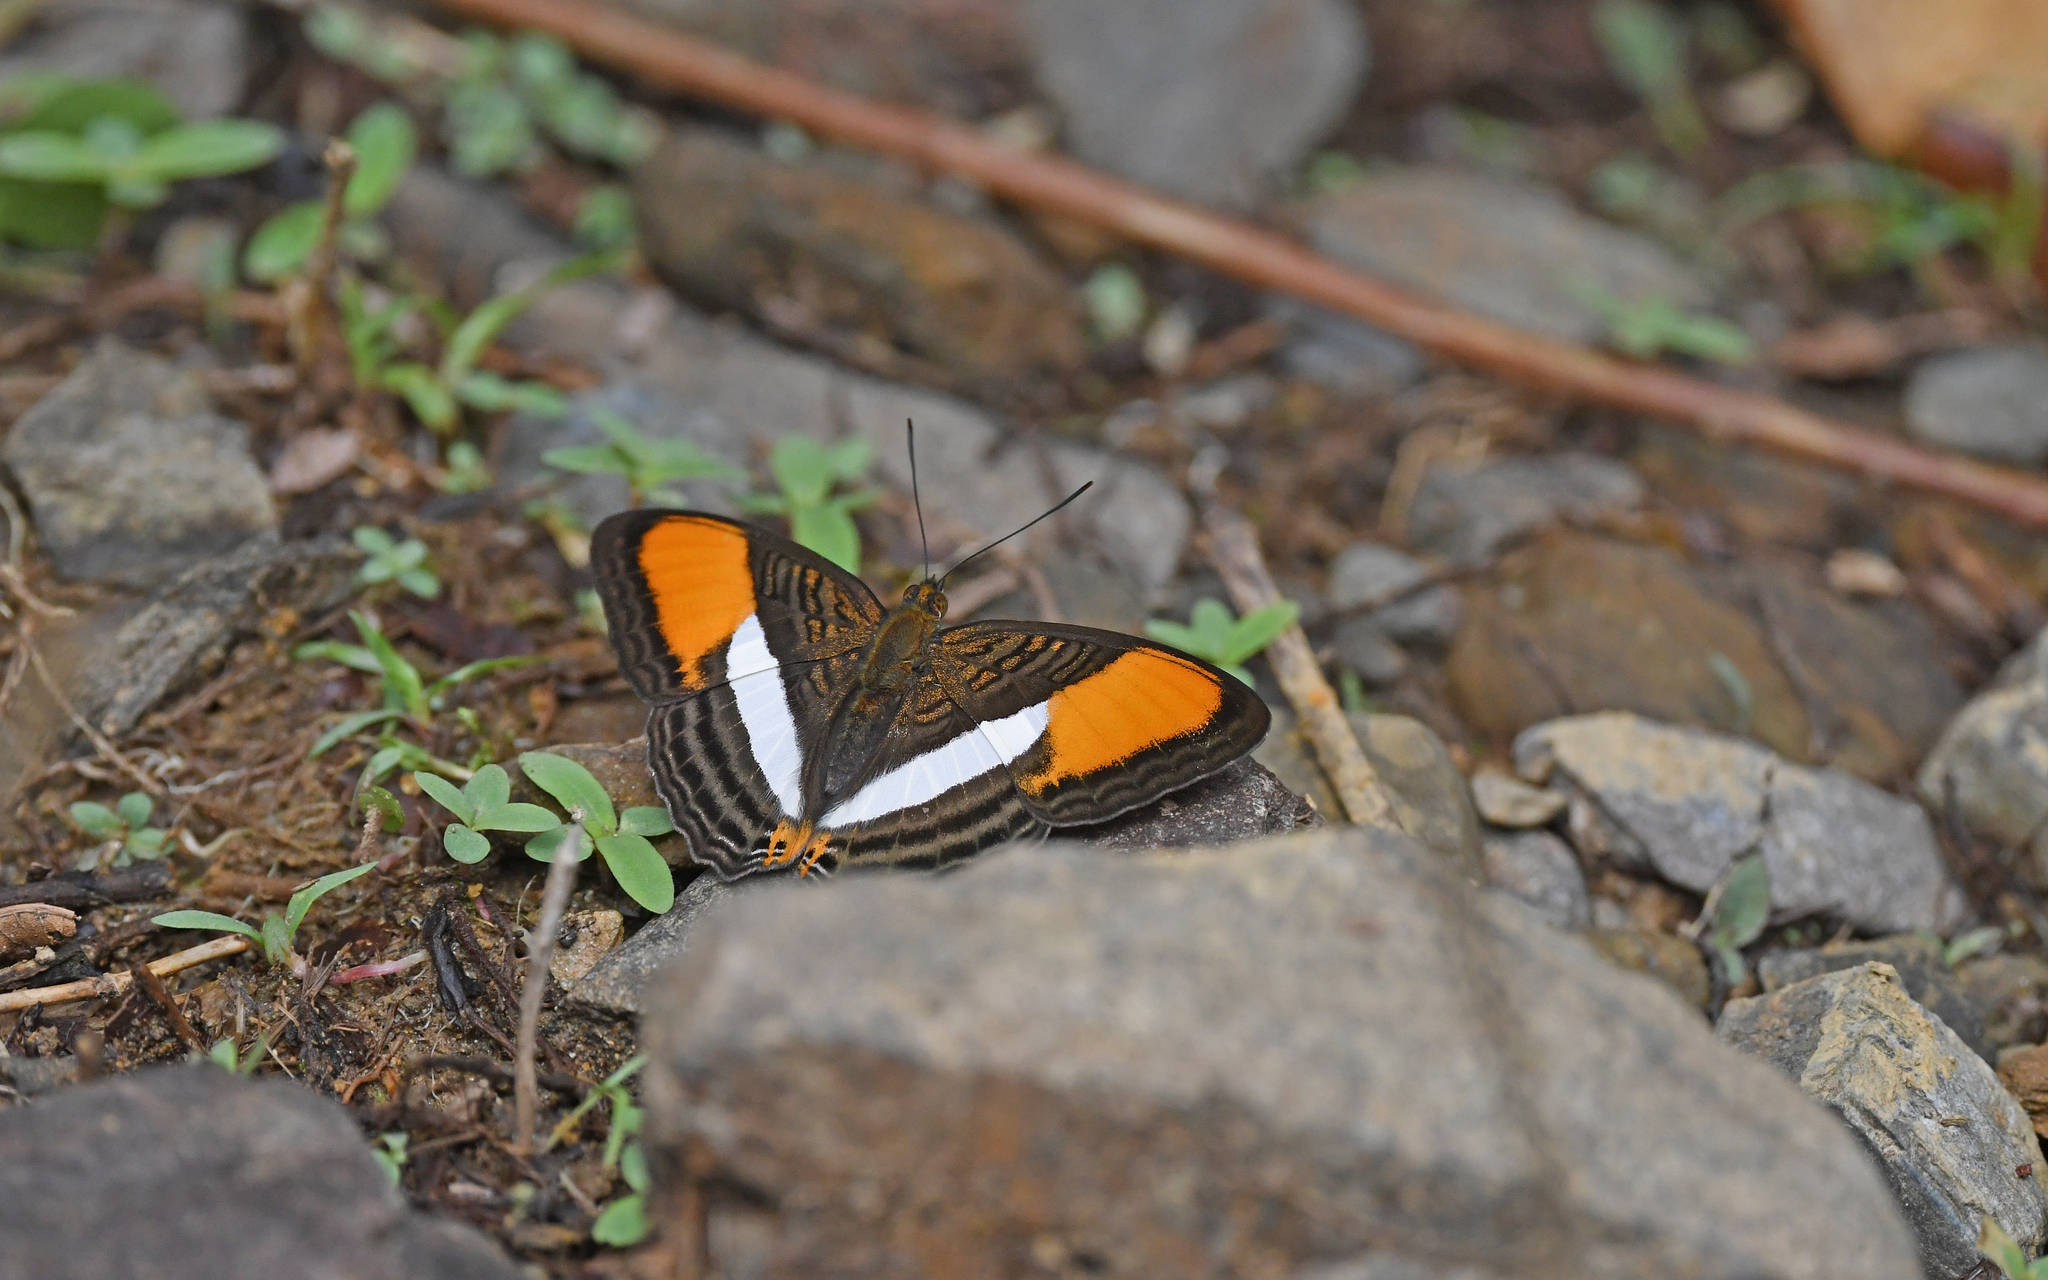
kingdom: Animalia
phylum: Arthropoda
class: Insecta
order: Lepidoptera
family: Nymphalidae
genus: Limenitis
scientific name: Limenitis cytherea
